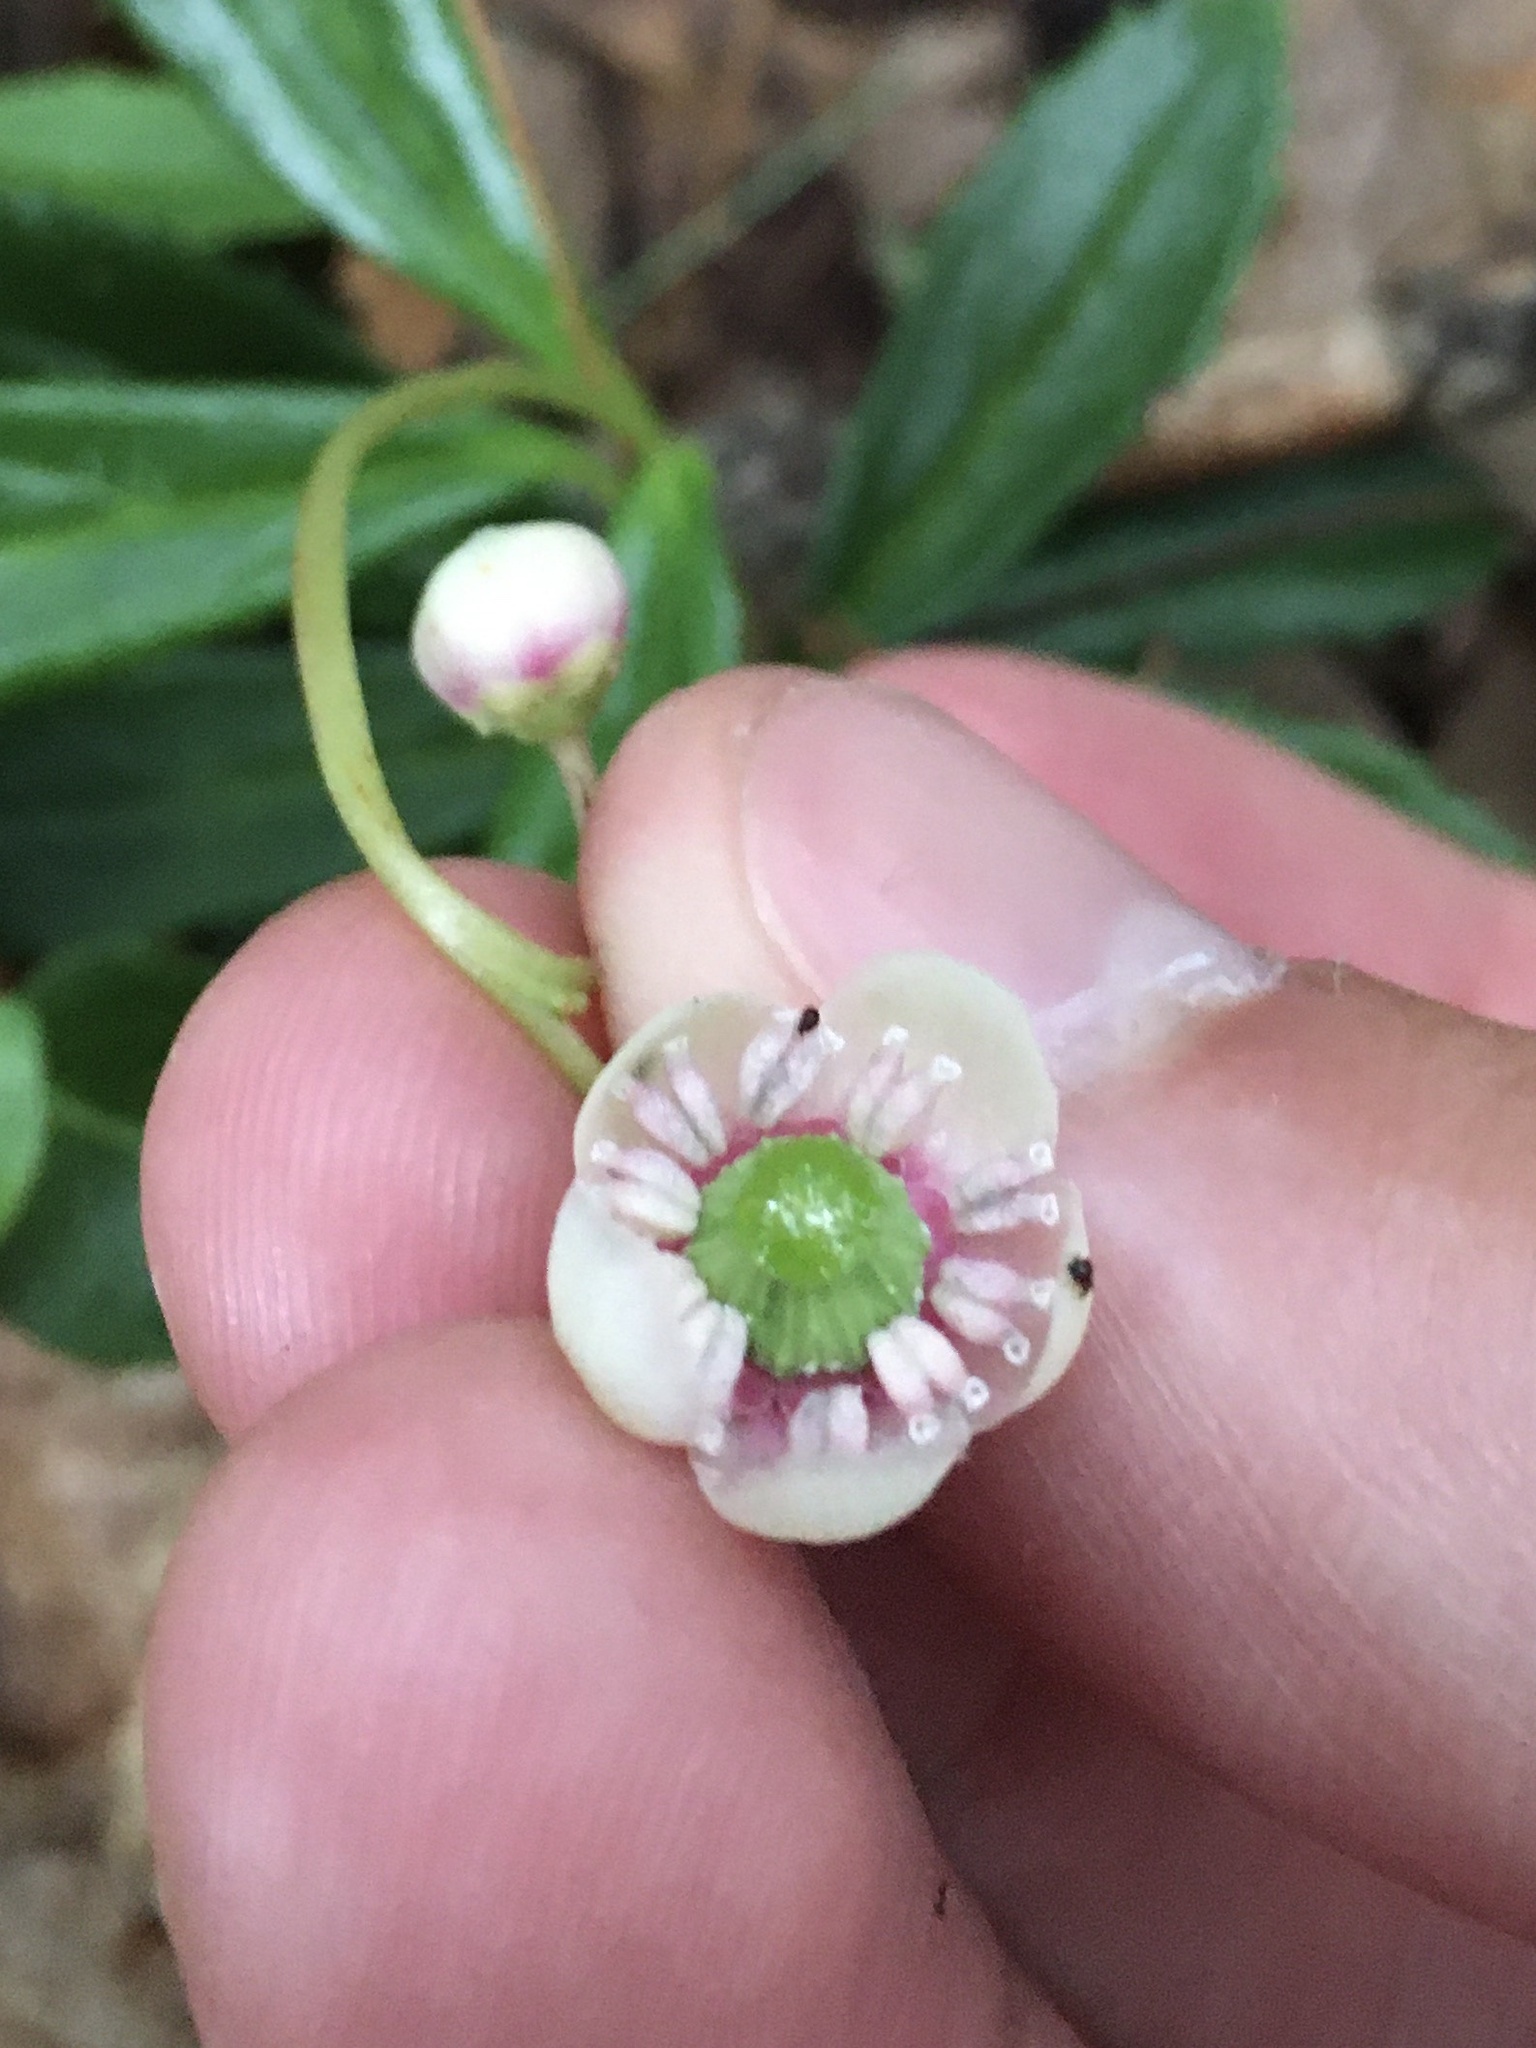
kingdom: Plantae
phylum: Tracheophyta
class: Magnoliopsida
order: Ericales
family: Ericaceae
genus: Chimaphila
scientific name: Chimaphila umbellata
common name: Pipsissewa
